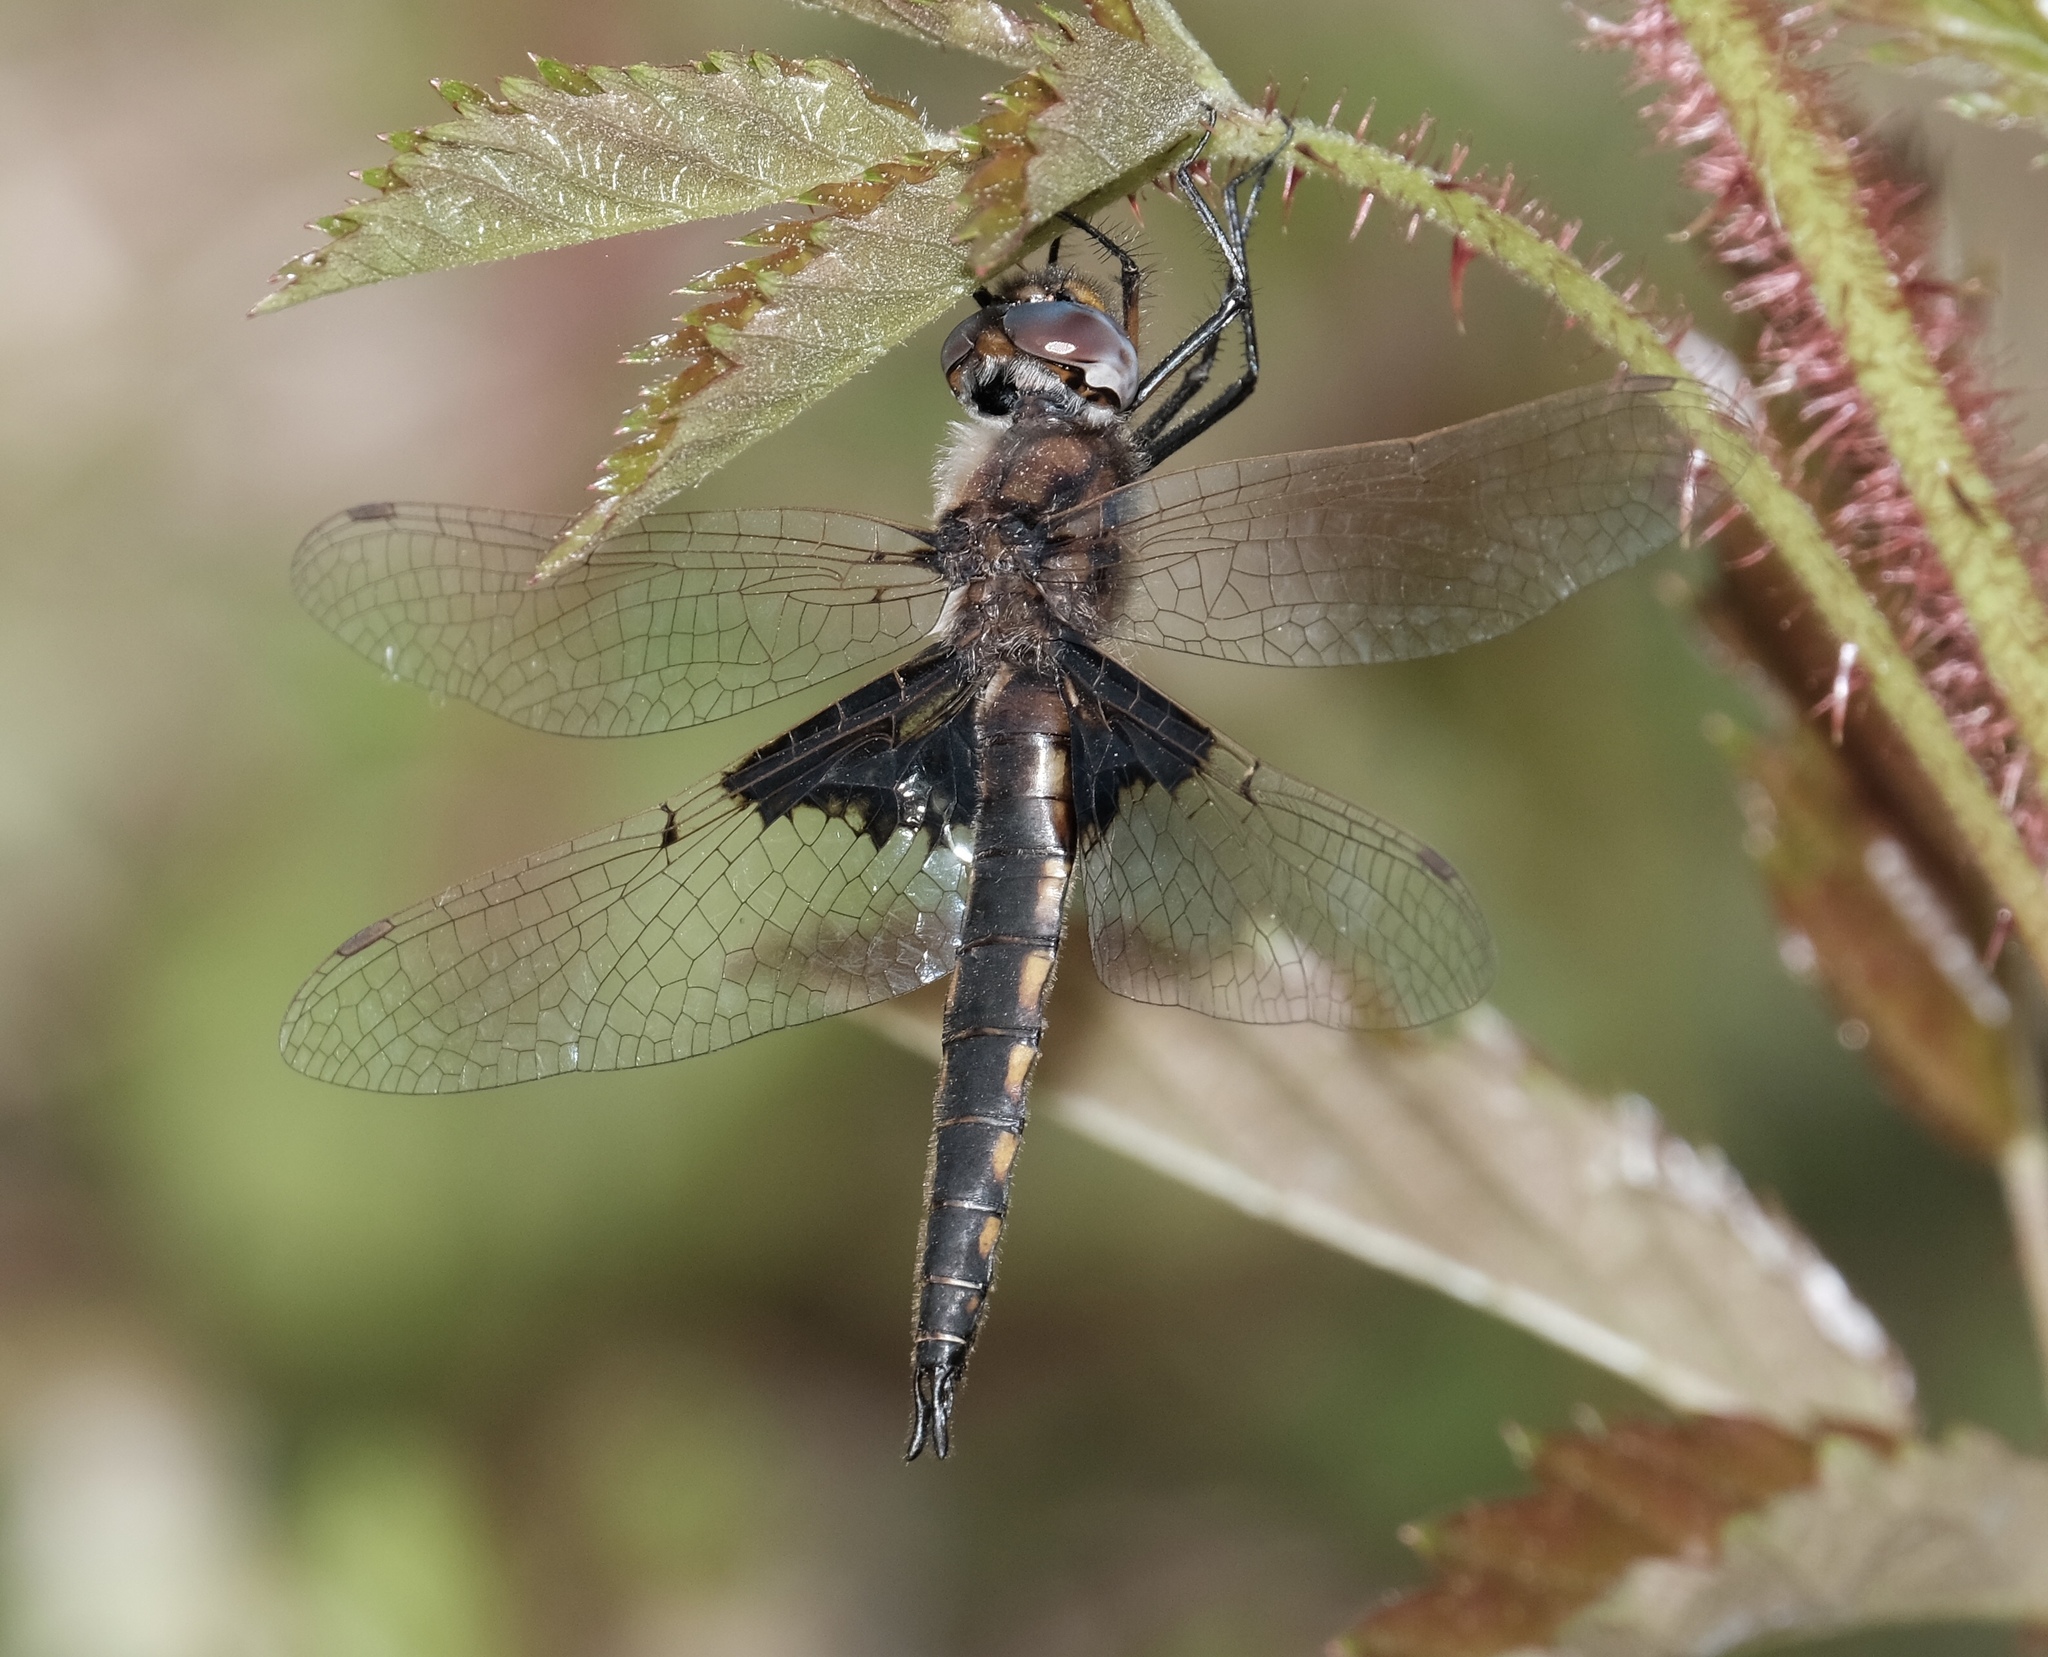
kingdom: Animalia
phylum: Arthropoda
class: Insecta
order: Odonata
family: Corduliidae
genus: Epitheca
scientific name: Epitheca semiaquea
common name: Mantled baskettail
